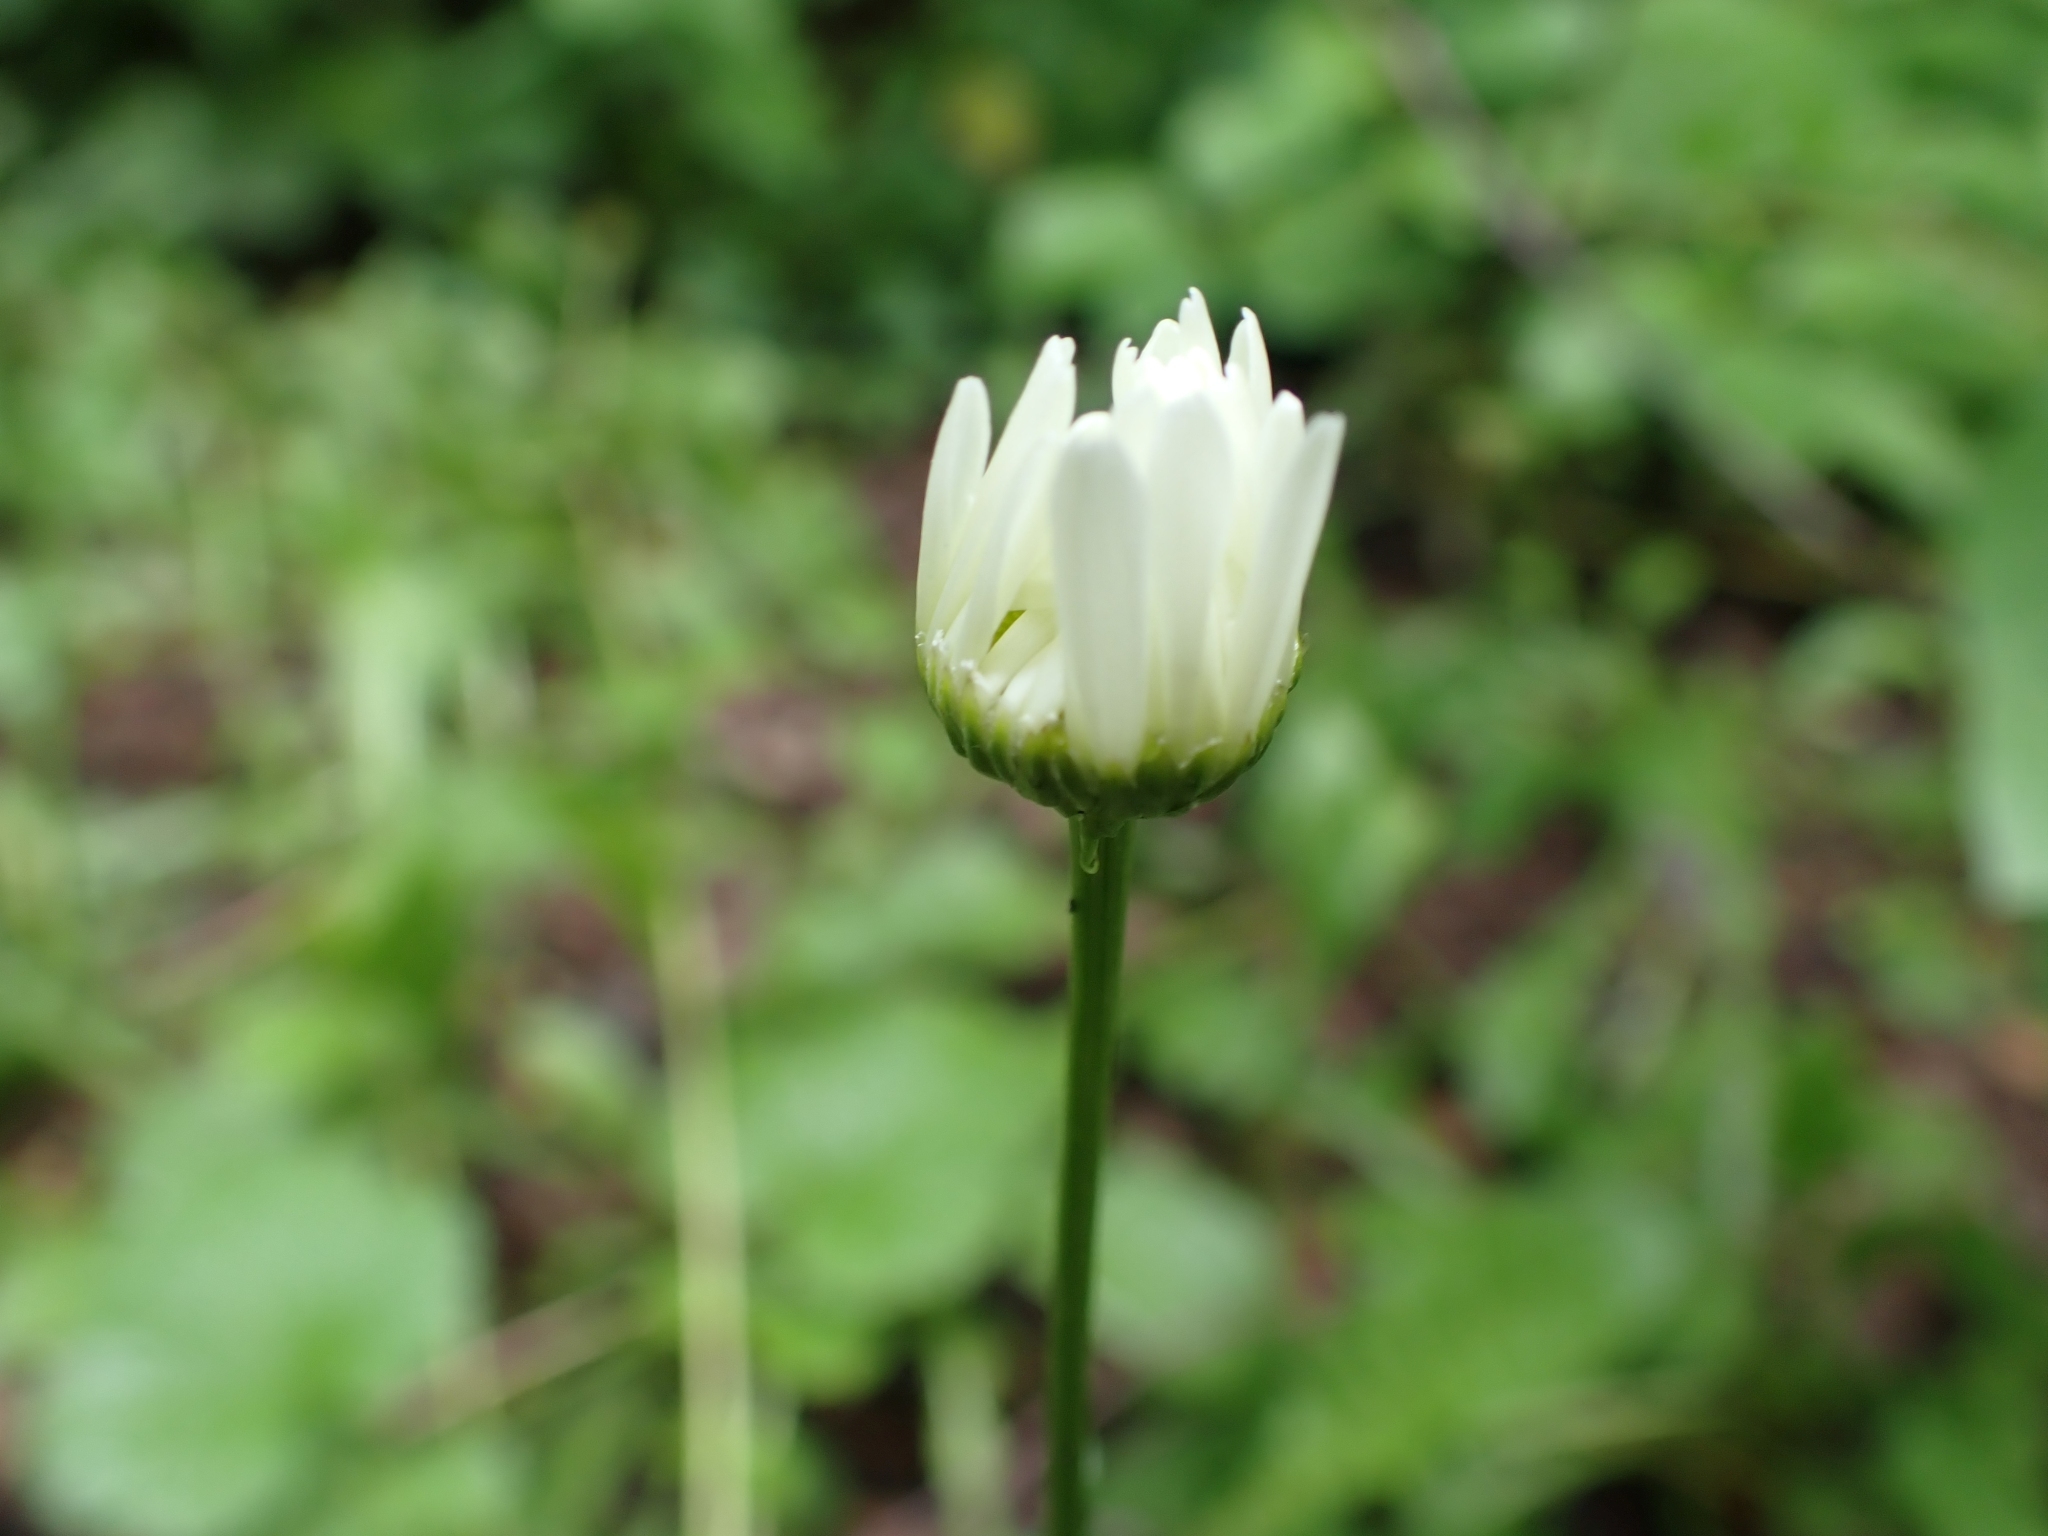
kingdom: Plantae
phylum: Tracheophyta
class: Magnoliopsida
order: Asterales
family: Asteraceae
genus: Leucanthemum
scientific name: Leucanthemum vulgare
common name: Oxeye daisy
